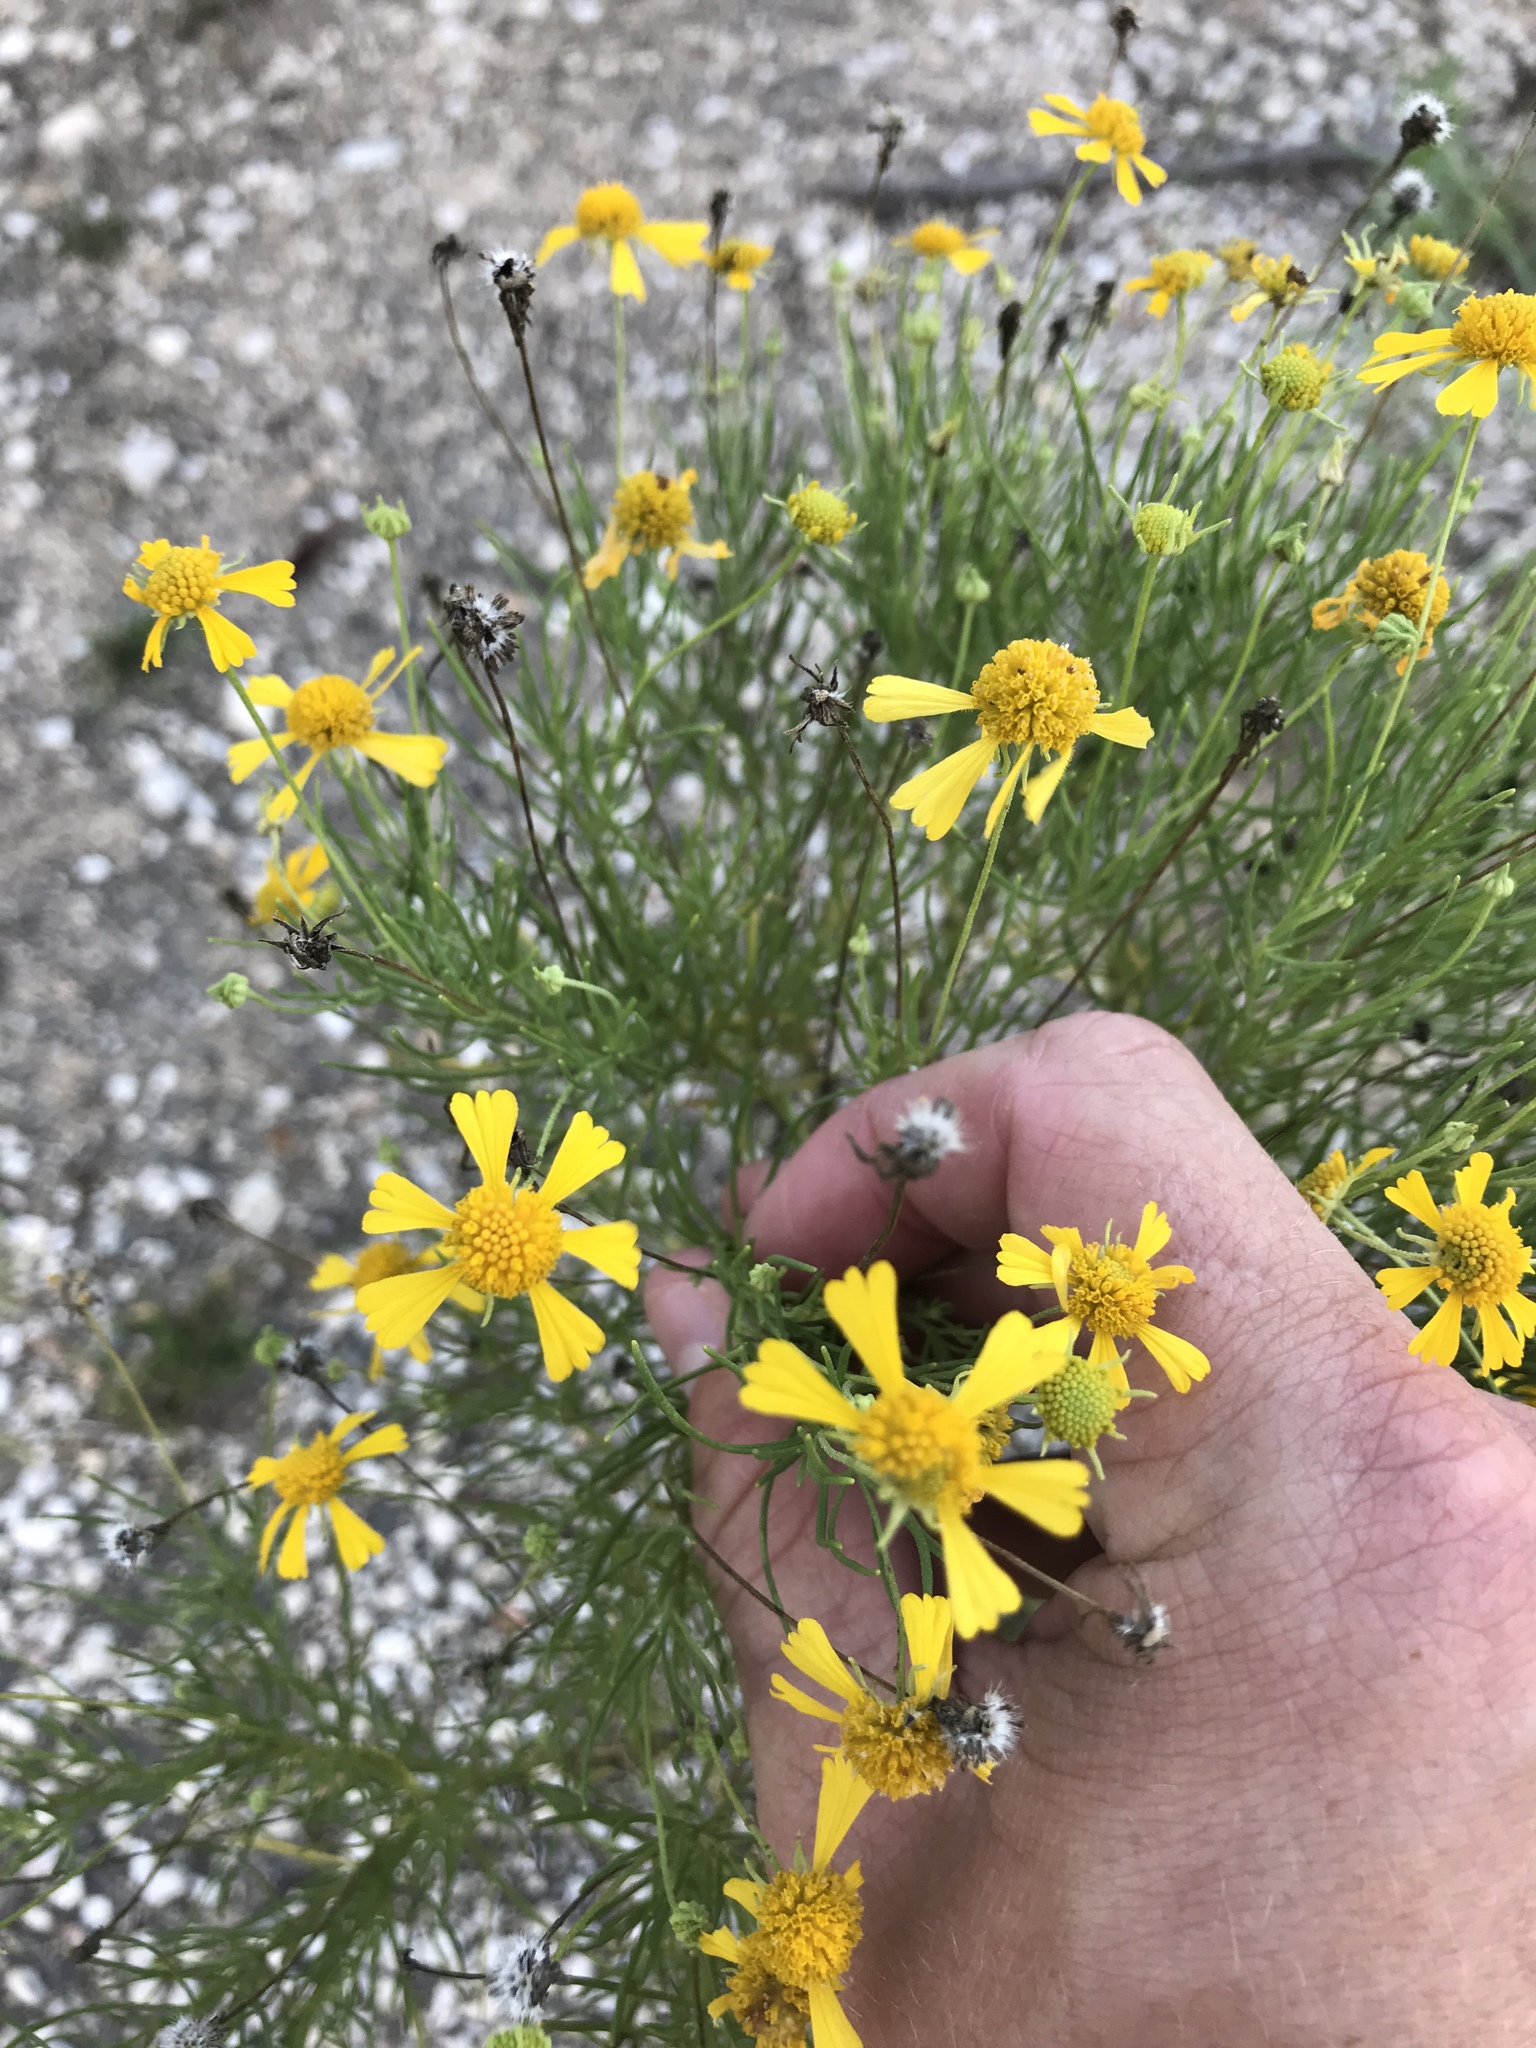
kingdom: Plantae
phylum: Tracheophyta
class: Magnoliopsida
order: Asterales
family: Asteraceae
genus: Helenium
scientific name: Helenium amarum
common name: Bitter sneezeweed
